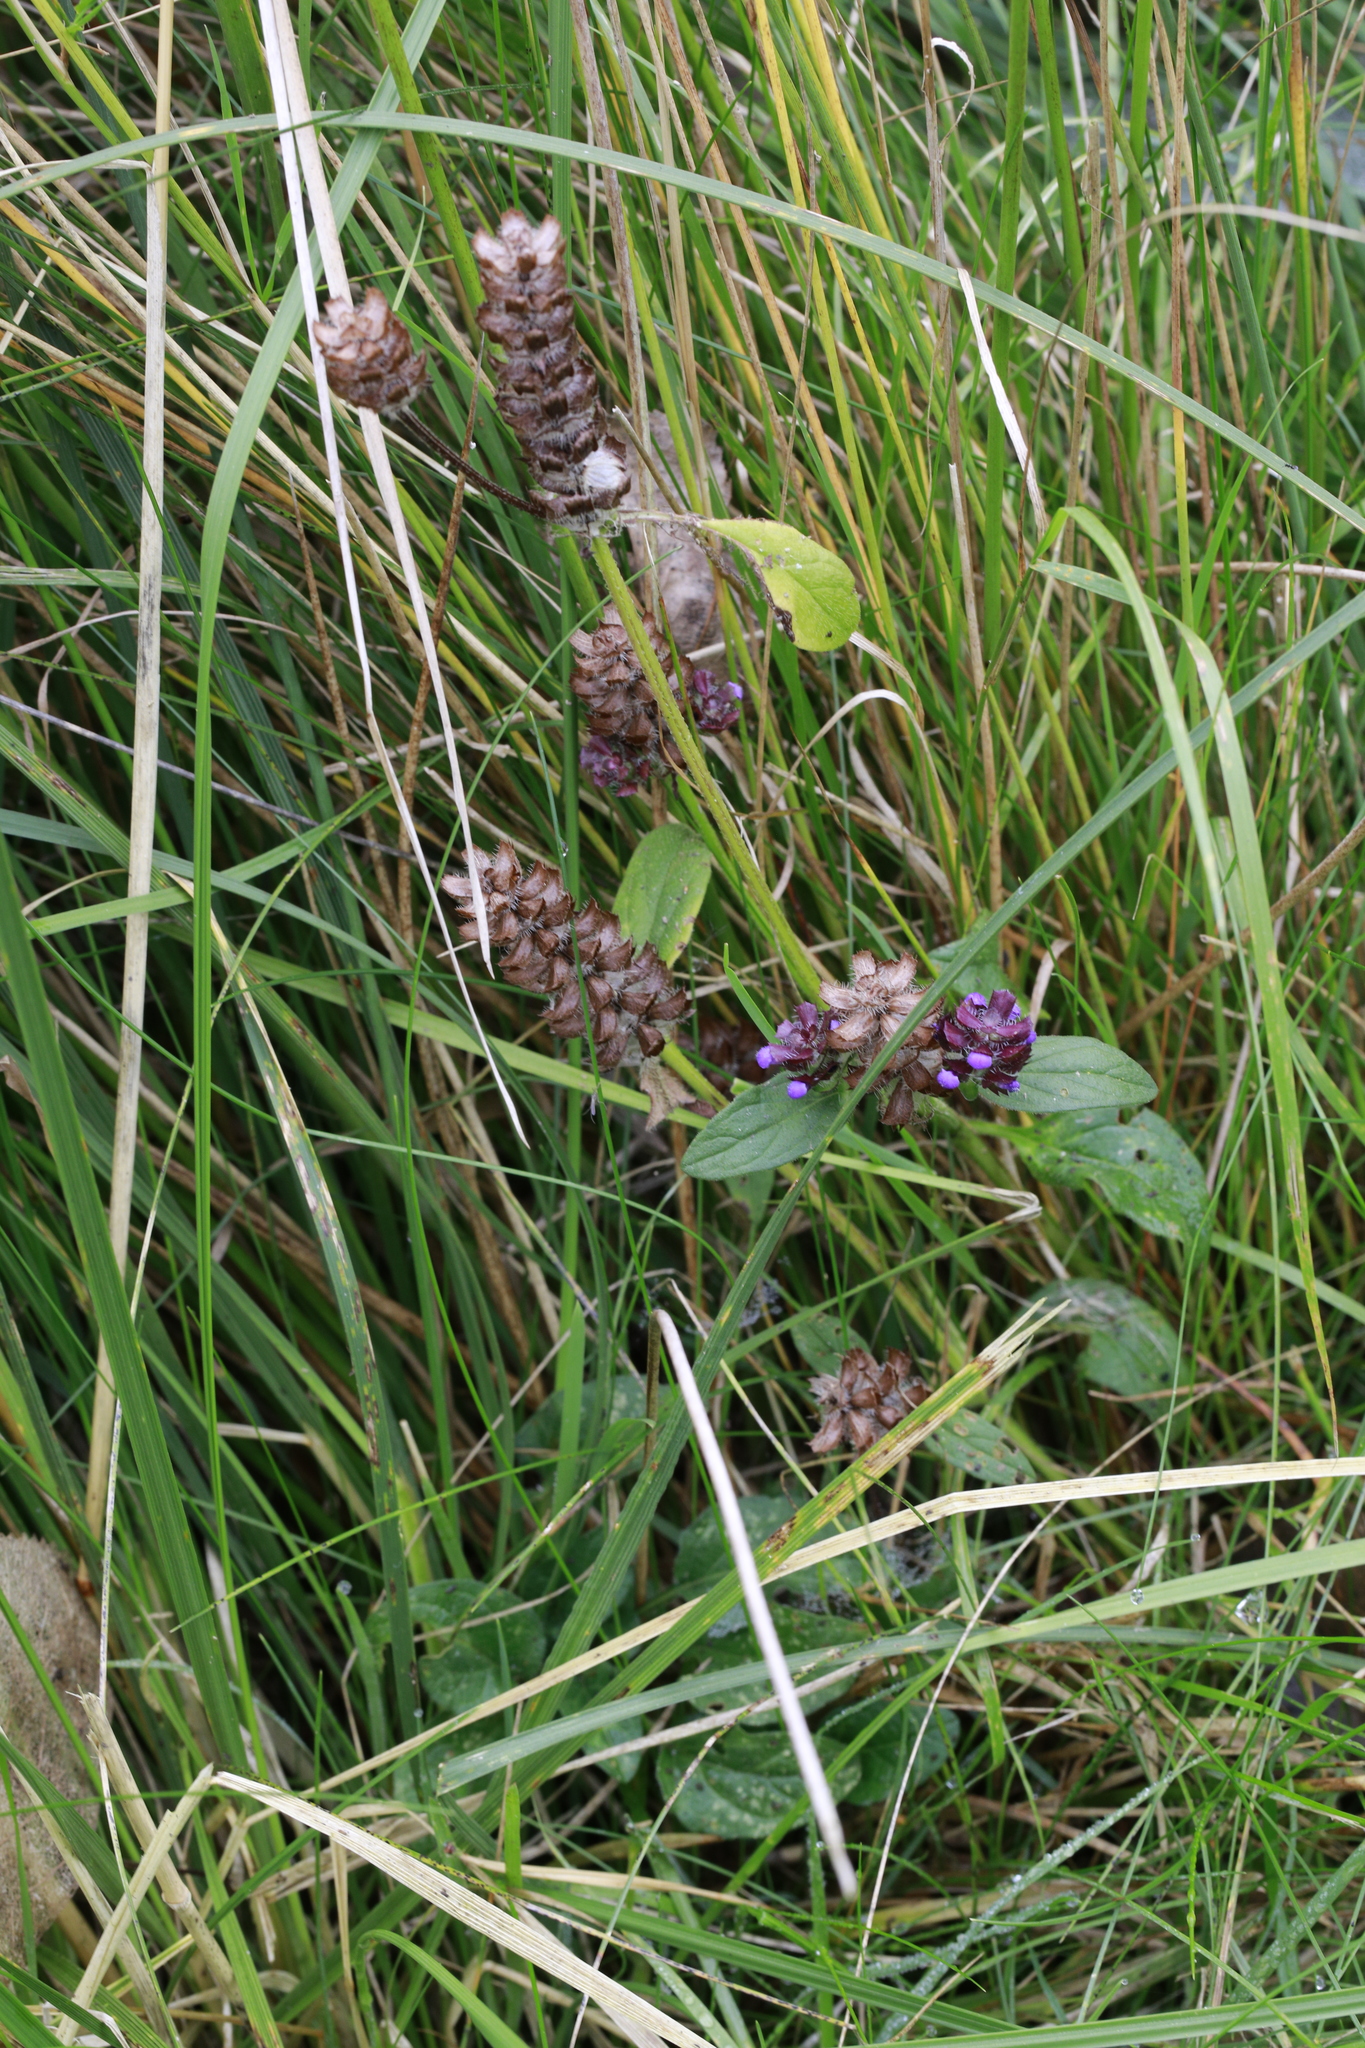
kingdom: Plantae
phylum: Tracheophyta
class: Magnoliopsida
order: Lamiales
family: Lamiaceae
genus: Prunella
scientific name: Prunella vulgaris
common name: Heal-all
